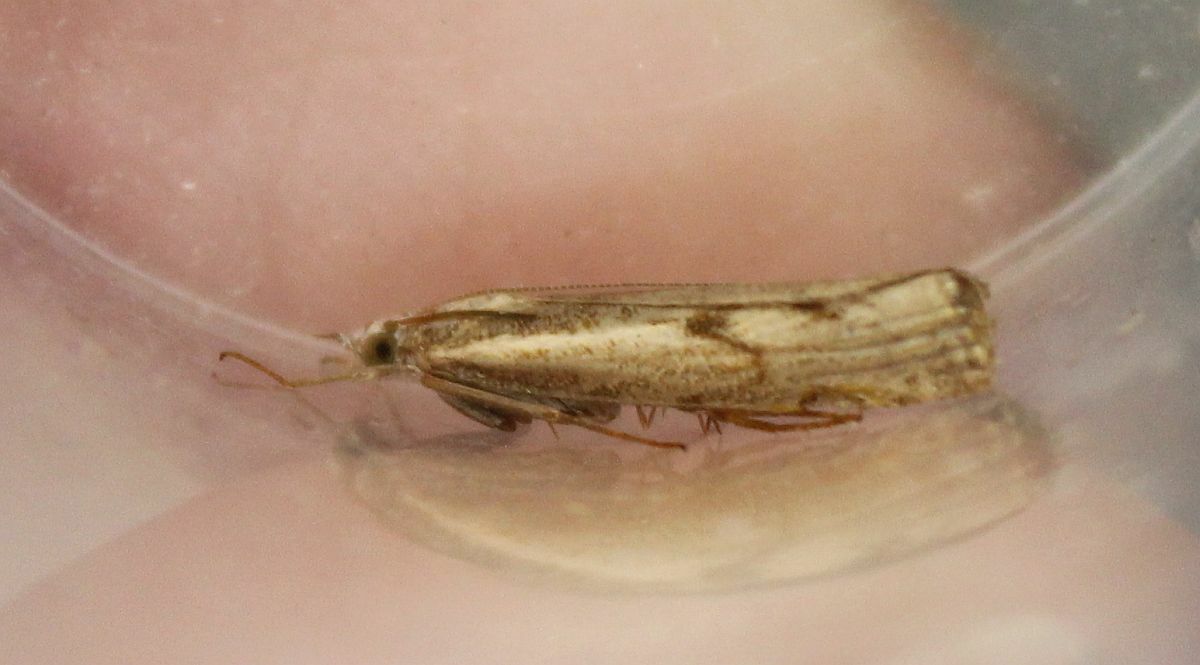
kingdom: Animalia
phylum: Arthropoda
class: Insecta
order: Lepidoptera
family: Crambidae
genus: Agriphila
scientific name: Agriphila geniculea
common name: Elbow-stripe grass-veneer
